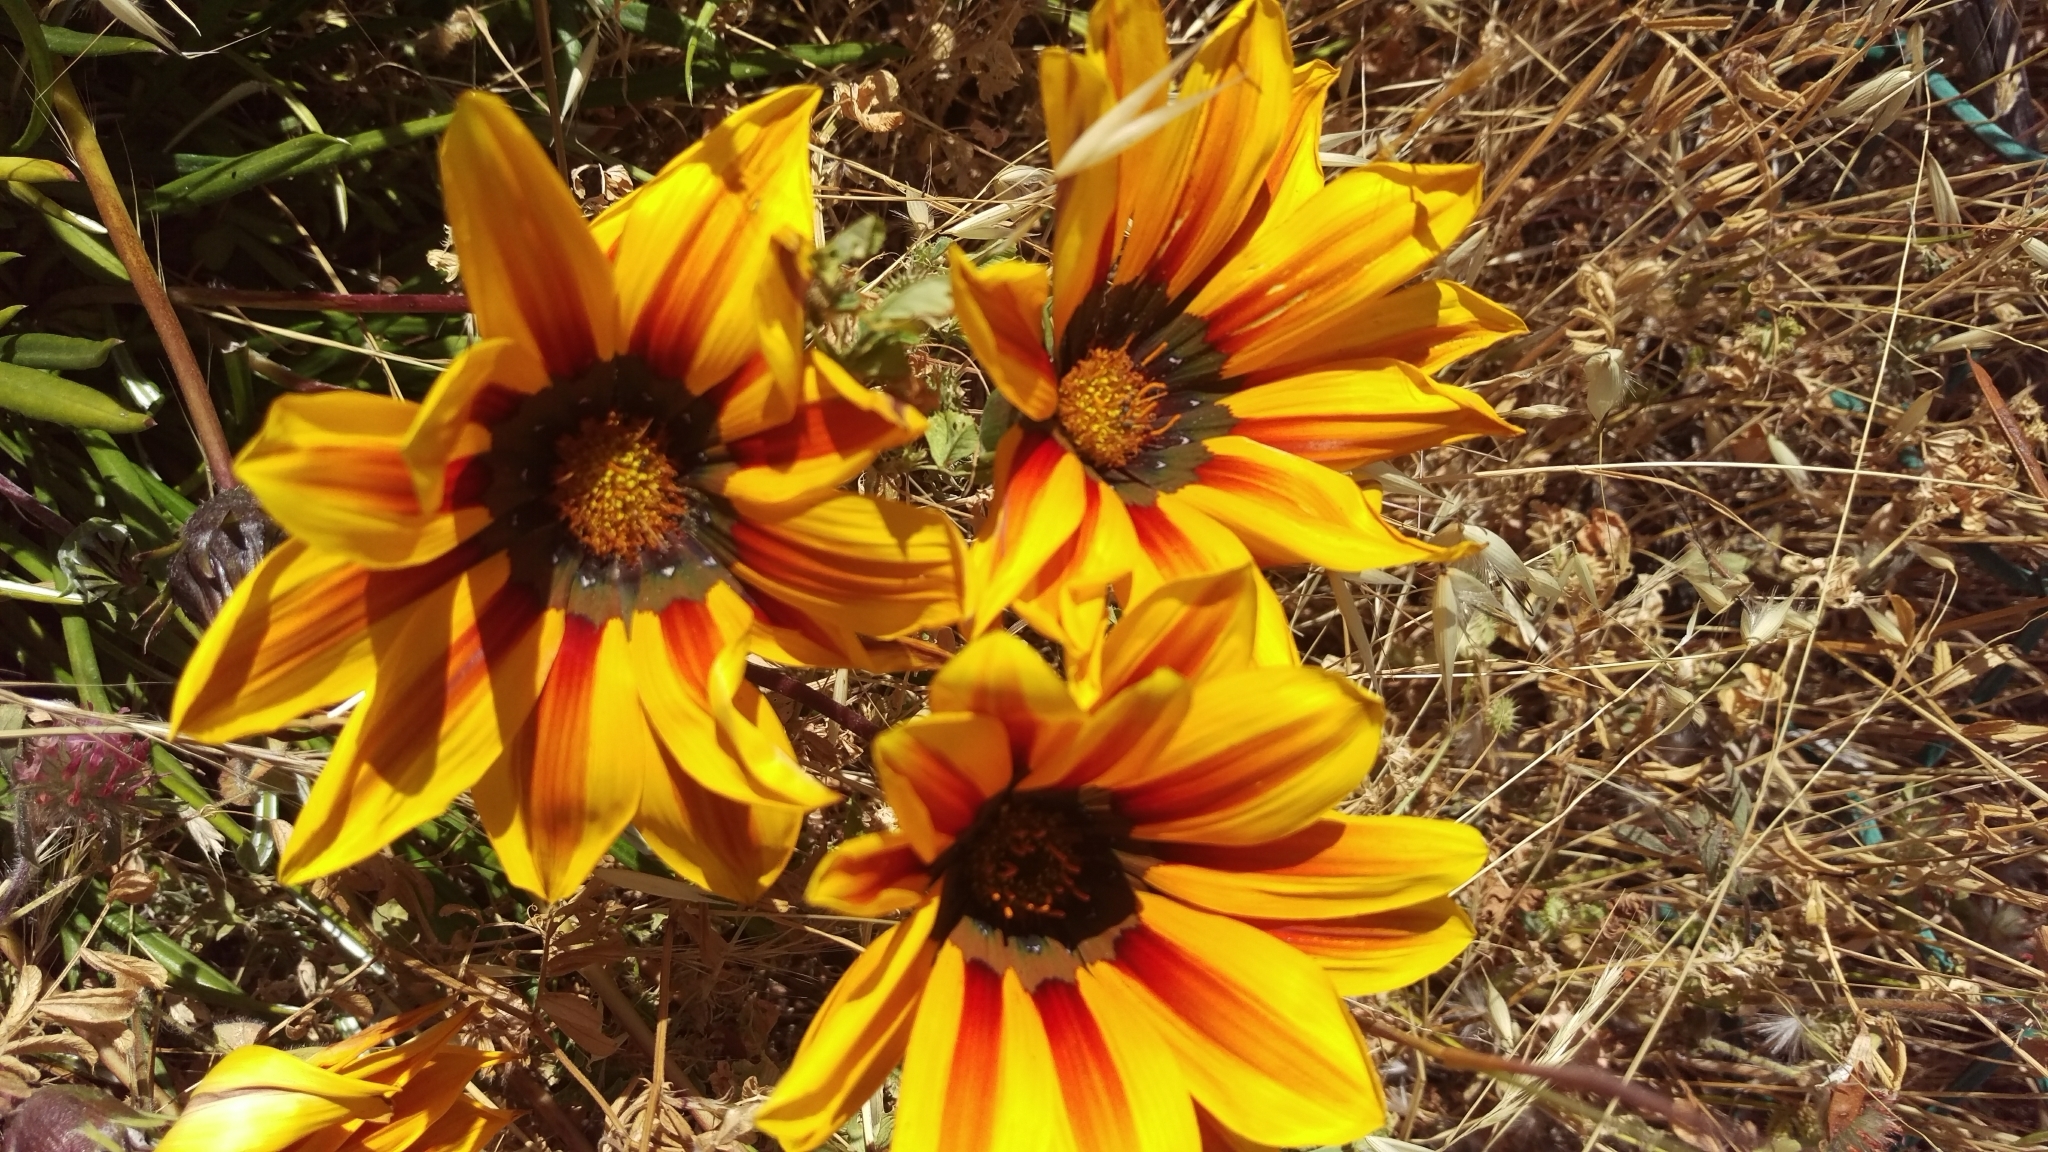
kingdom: Plantae
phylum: Tracheophyta
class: Magnoliopsida
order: Asterales
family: Asteraceae
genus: Gazania
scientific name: Gazania linearis
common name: Treasureflower
